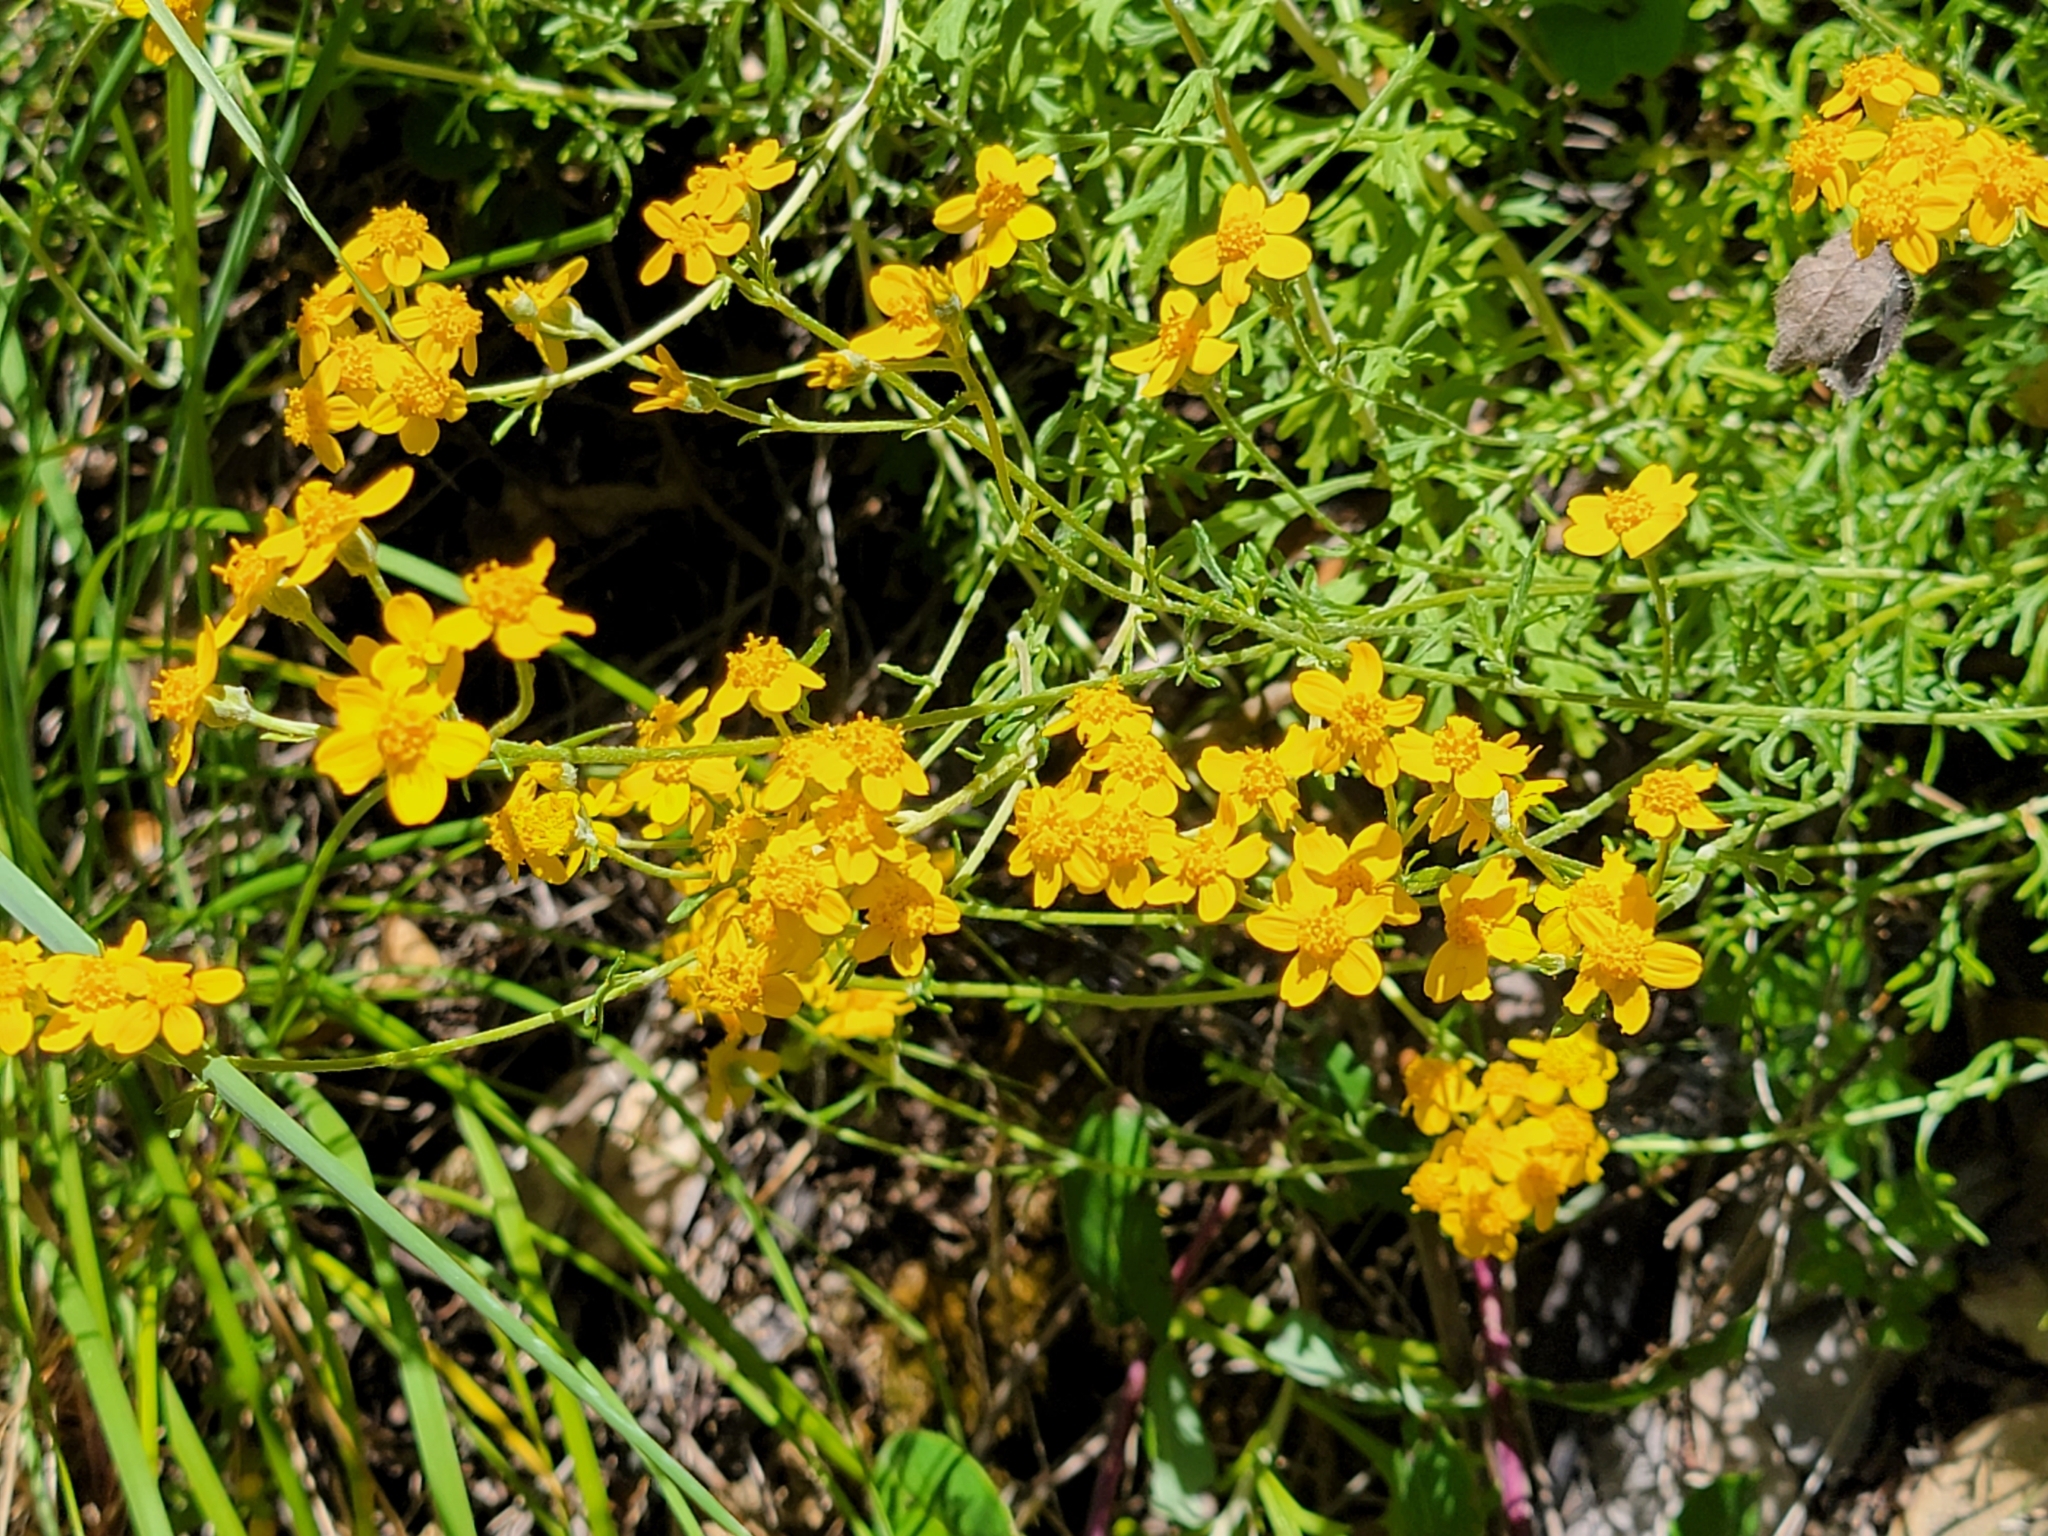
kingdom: Plantae
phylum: Tracheophyta
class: Magnoliopsida
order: Asterales
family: Asteraceae
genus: Eriophyllum
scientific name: Eriophyllum confertiflorum
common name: Golden-yarrow
